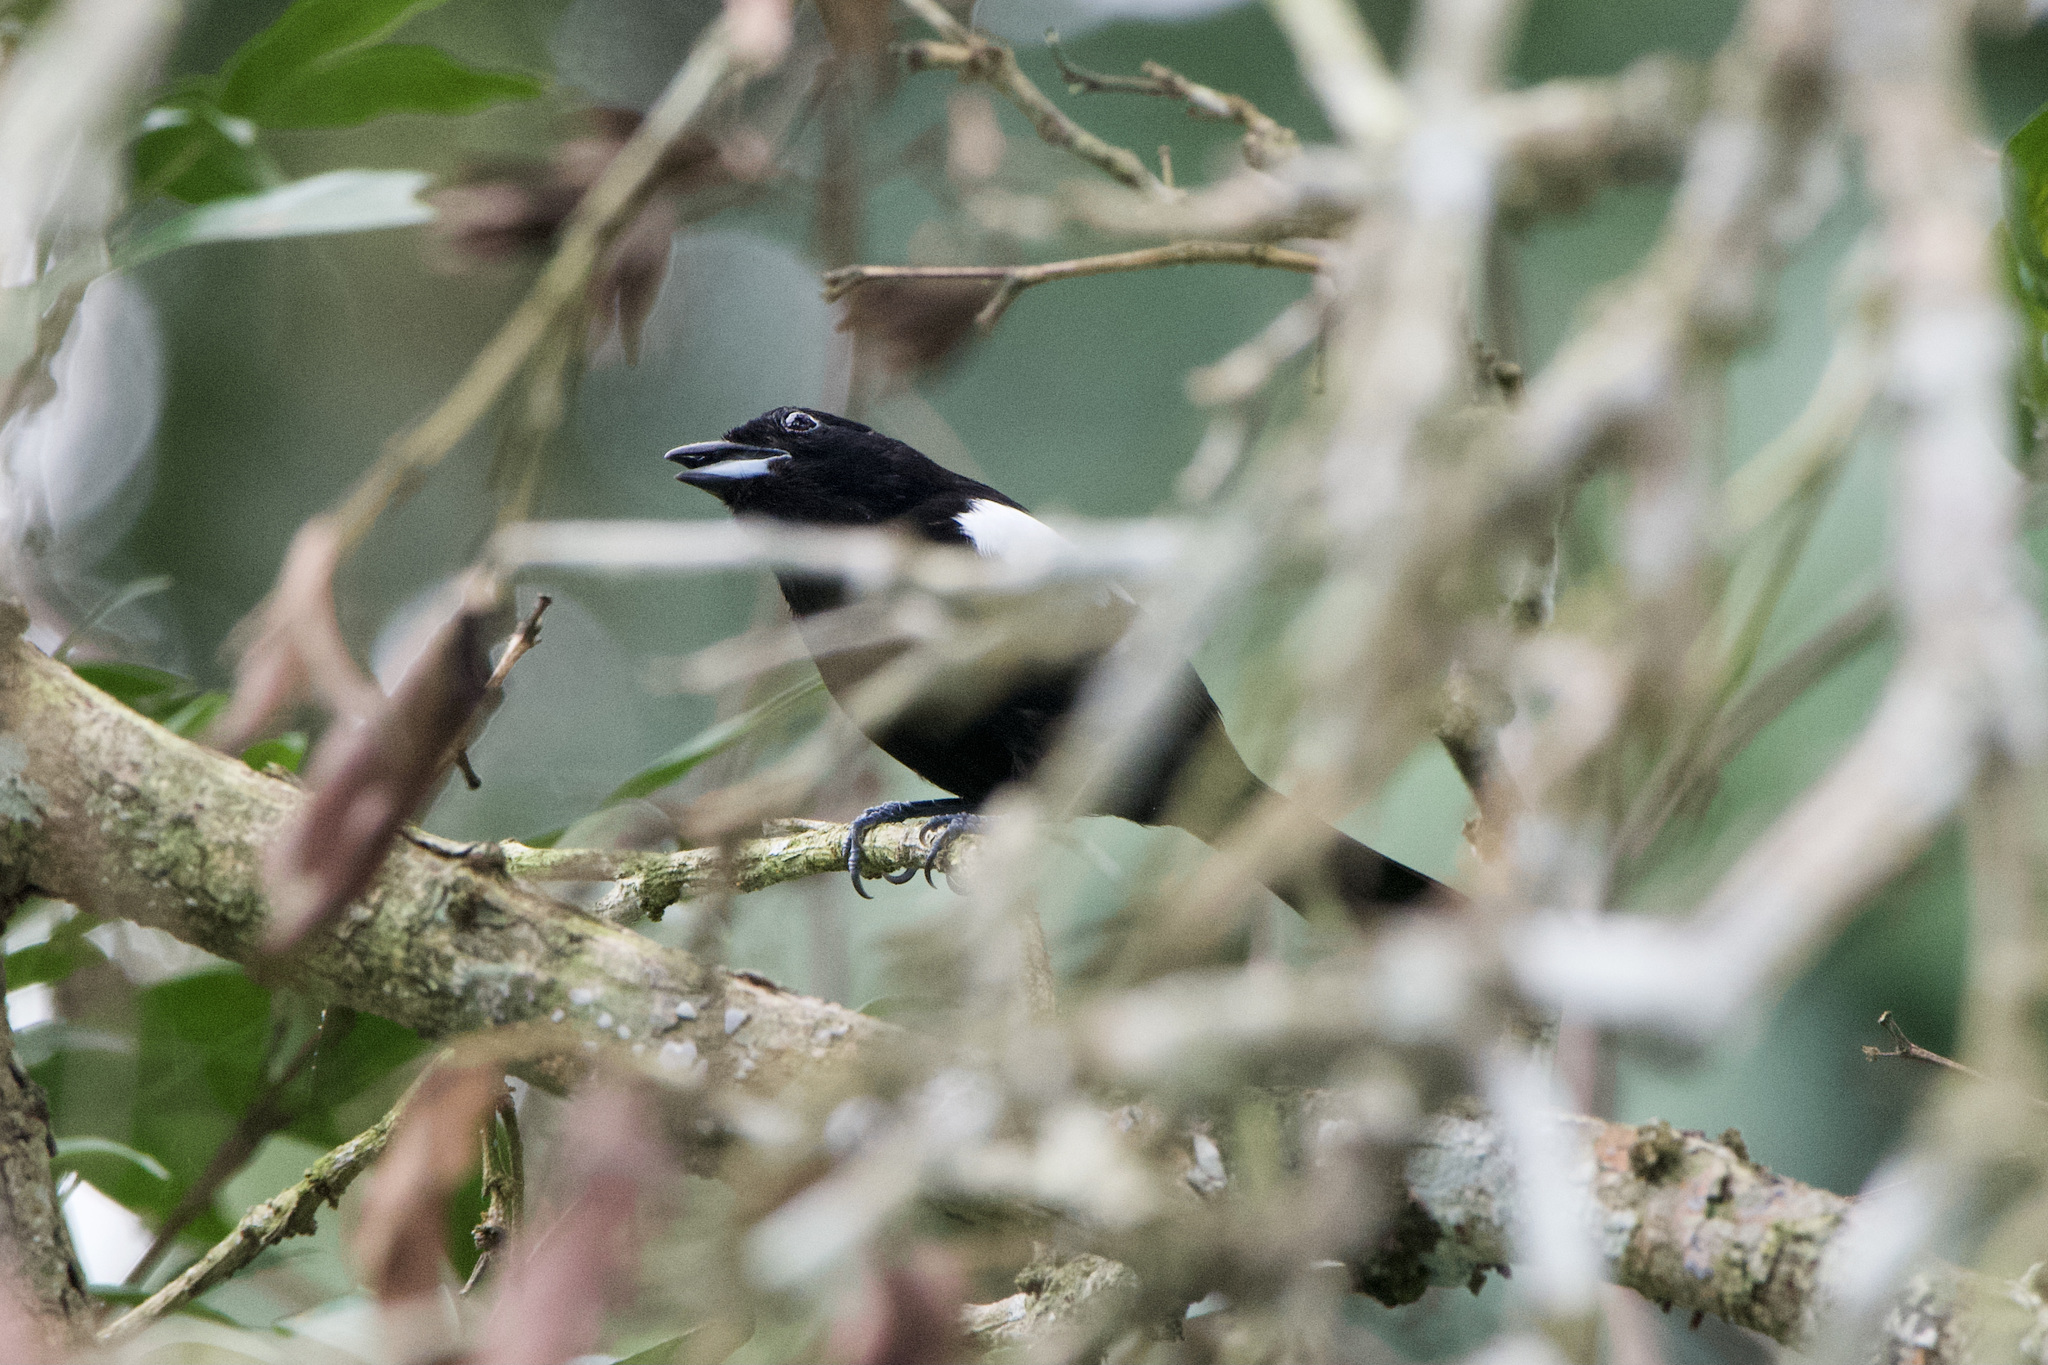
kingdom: Animalia
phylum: Chordata
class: Aves
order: Passeriformes
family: Thraupidae
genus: Loriotus
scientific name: Loriotus luctuosus
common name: White-shouldered tanager
